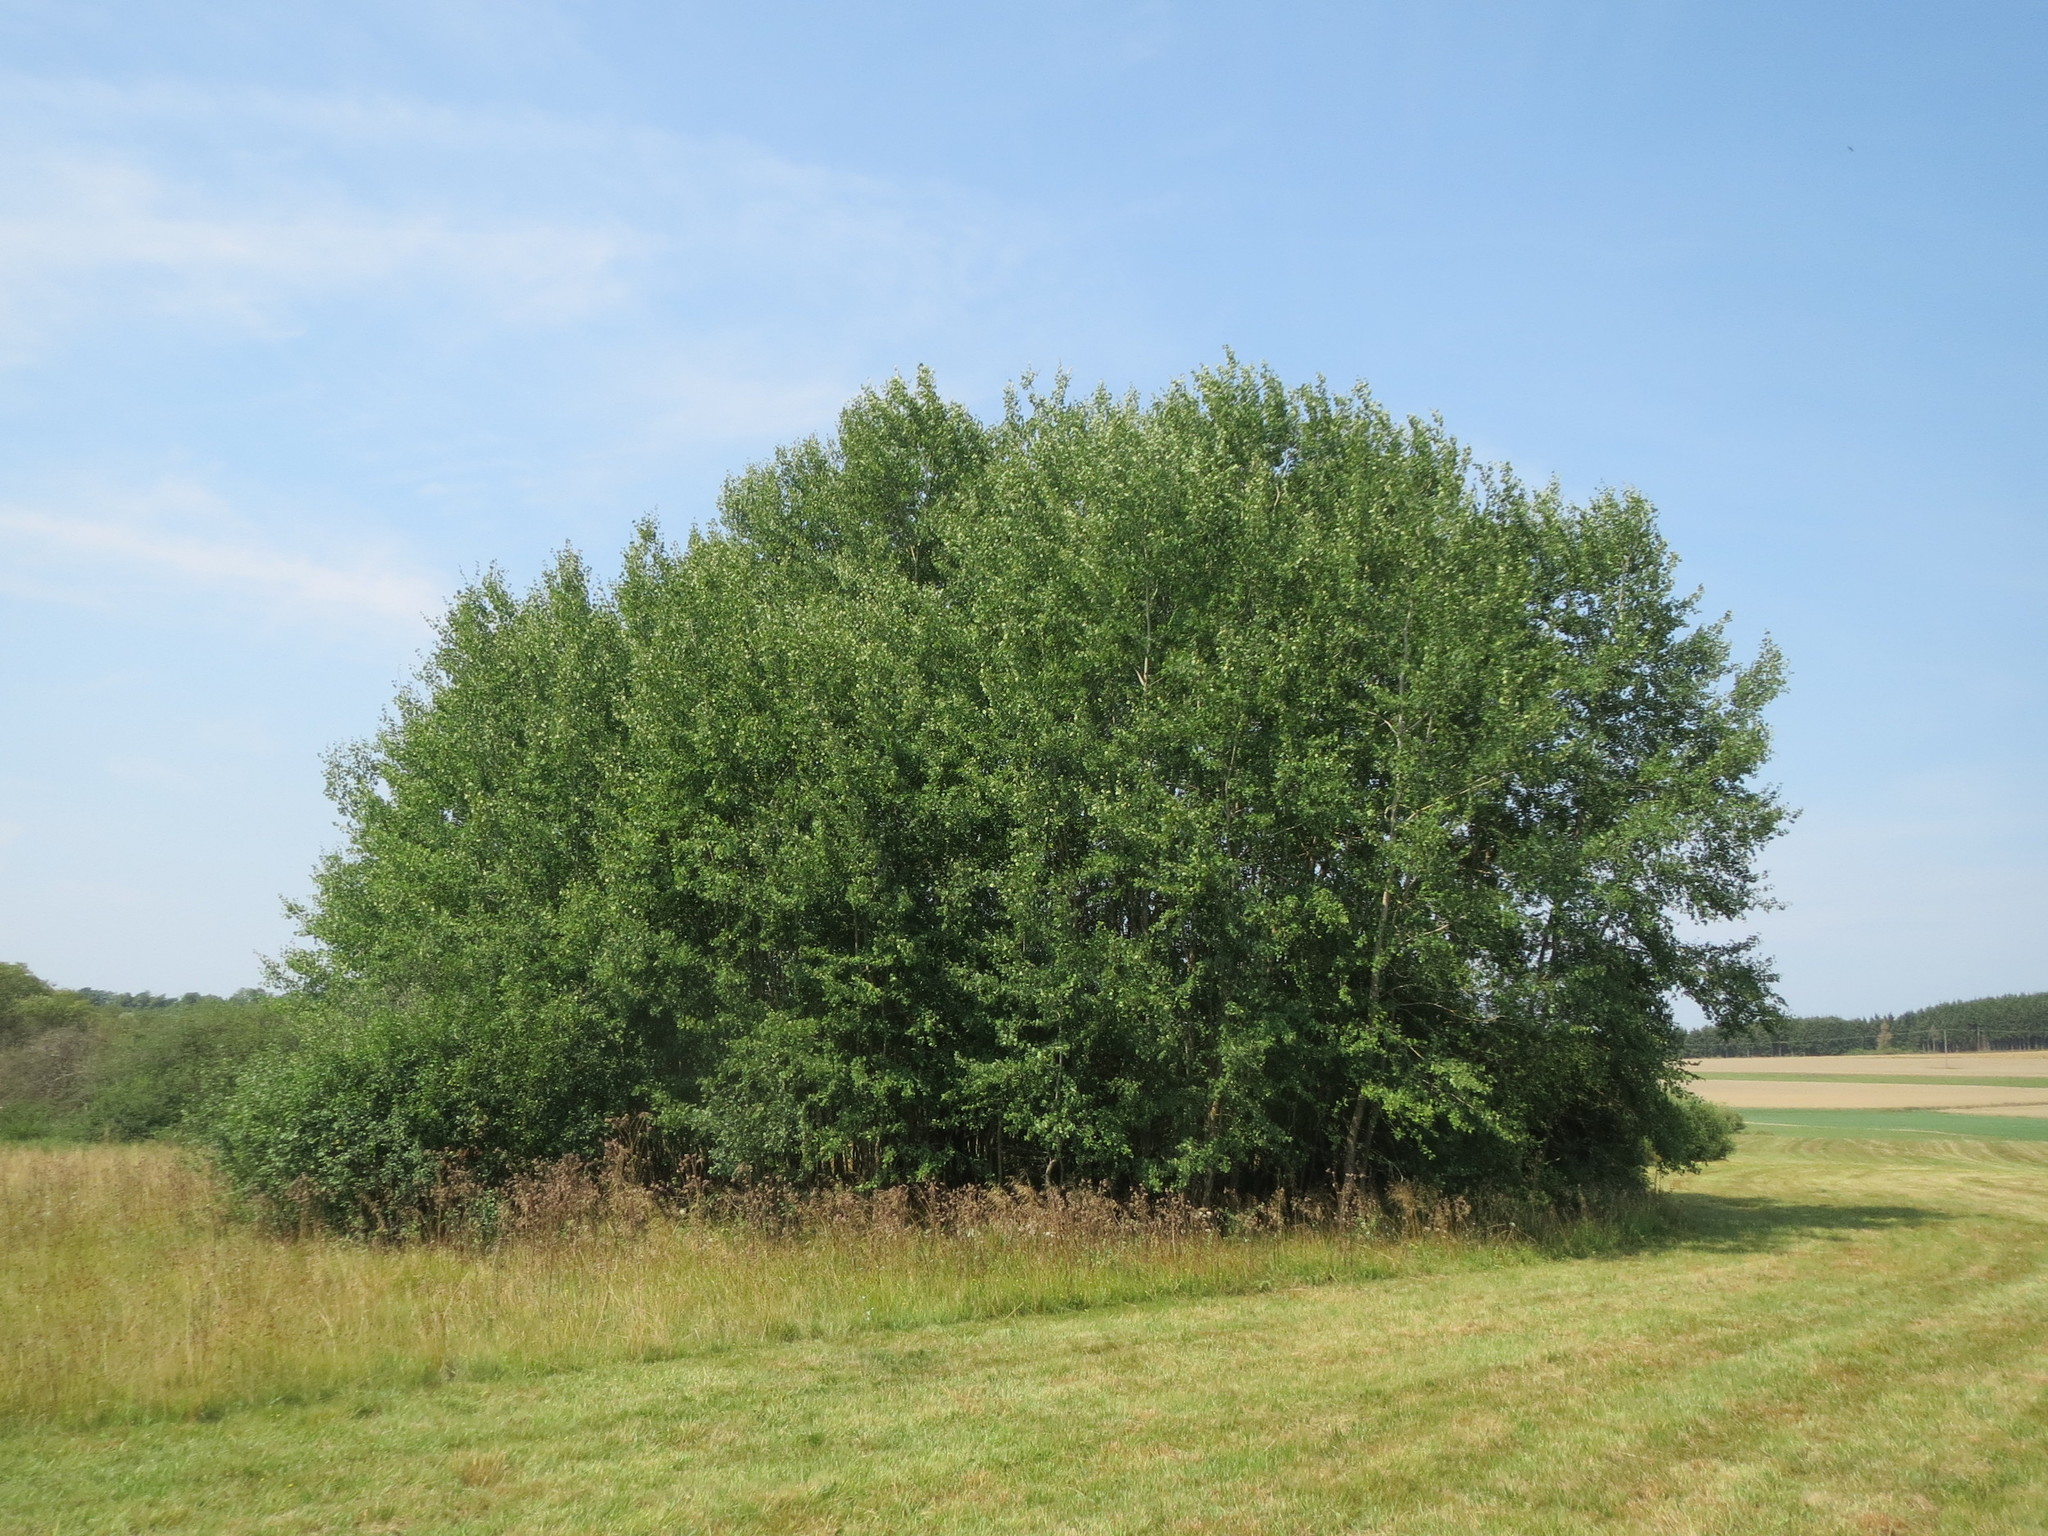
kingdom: Plantae
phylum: Tracheophyta
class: Magnoliopsida
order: Malpighiales
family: Salicaceae
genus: Populus
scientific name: Populus tremula
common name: European aspen
